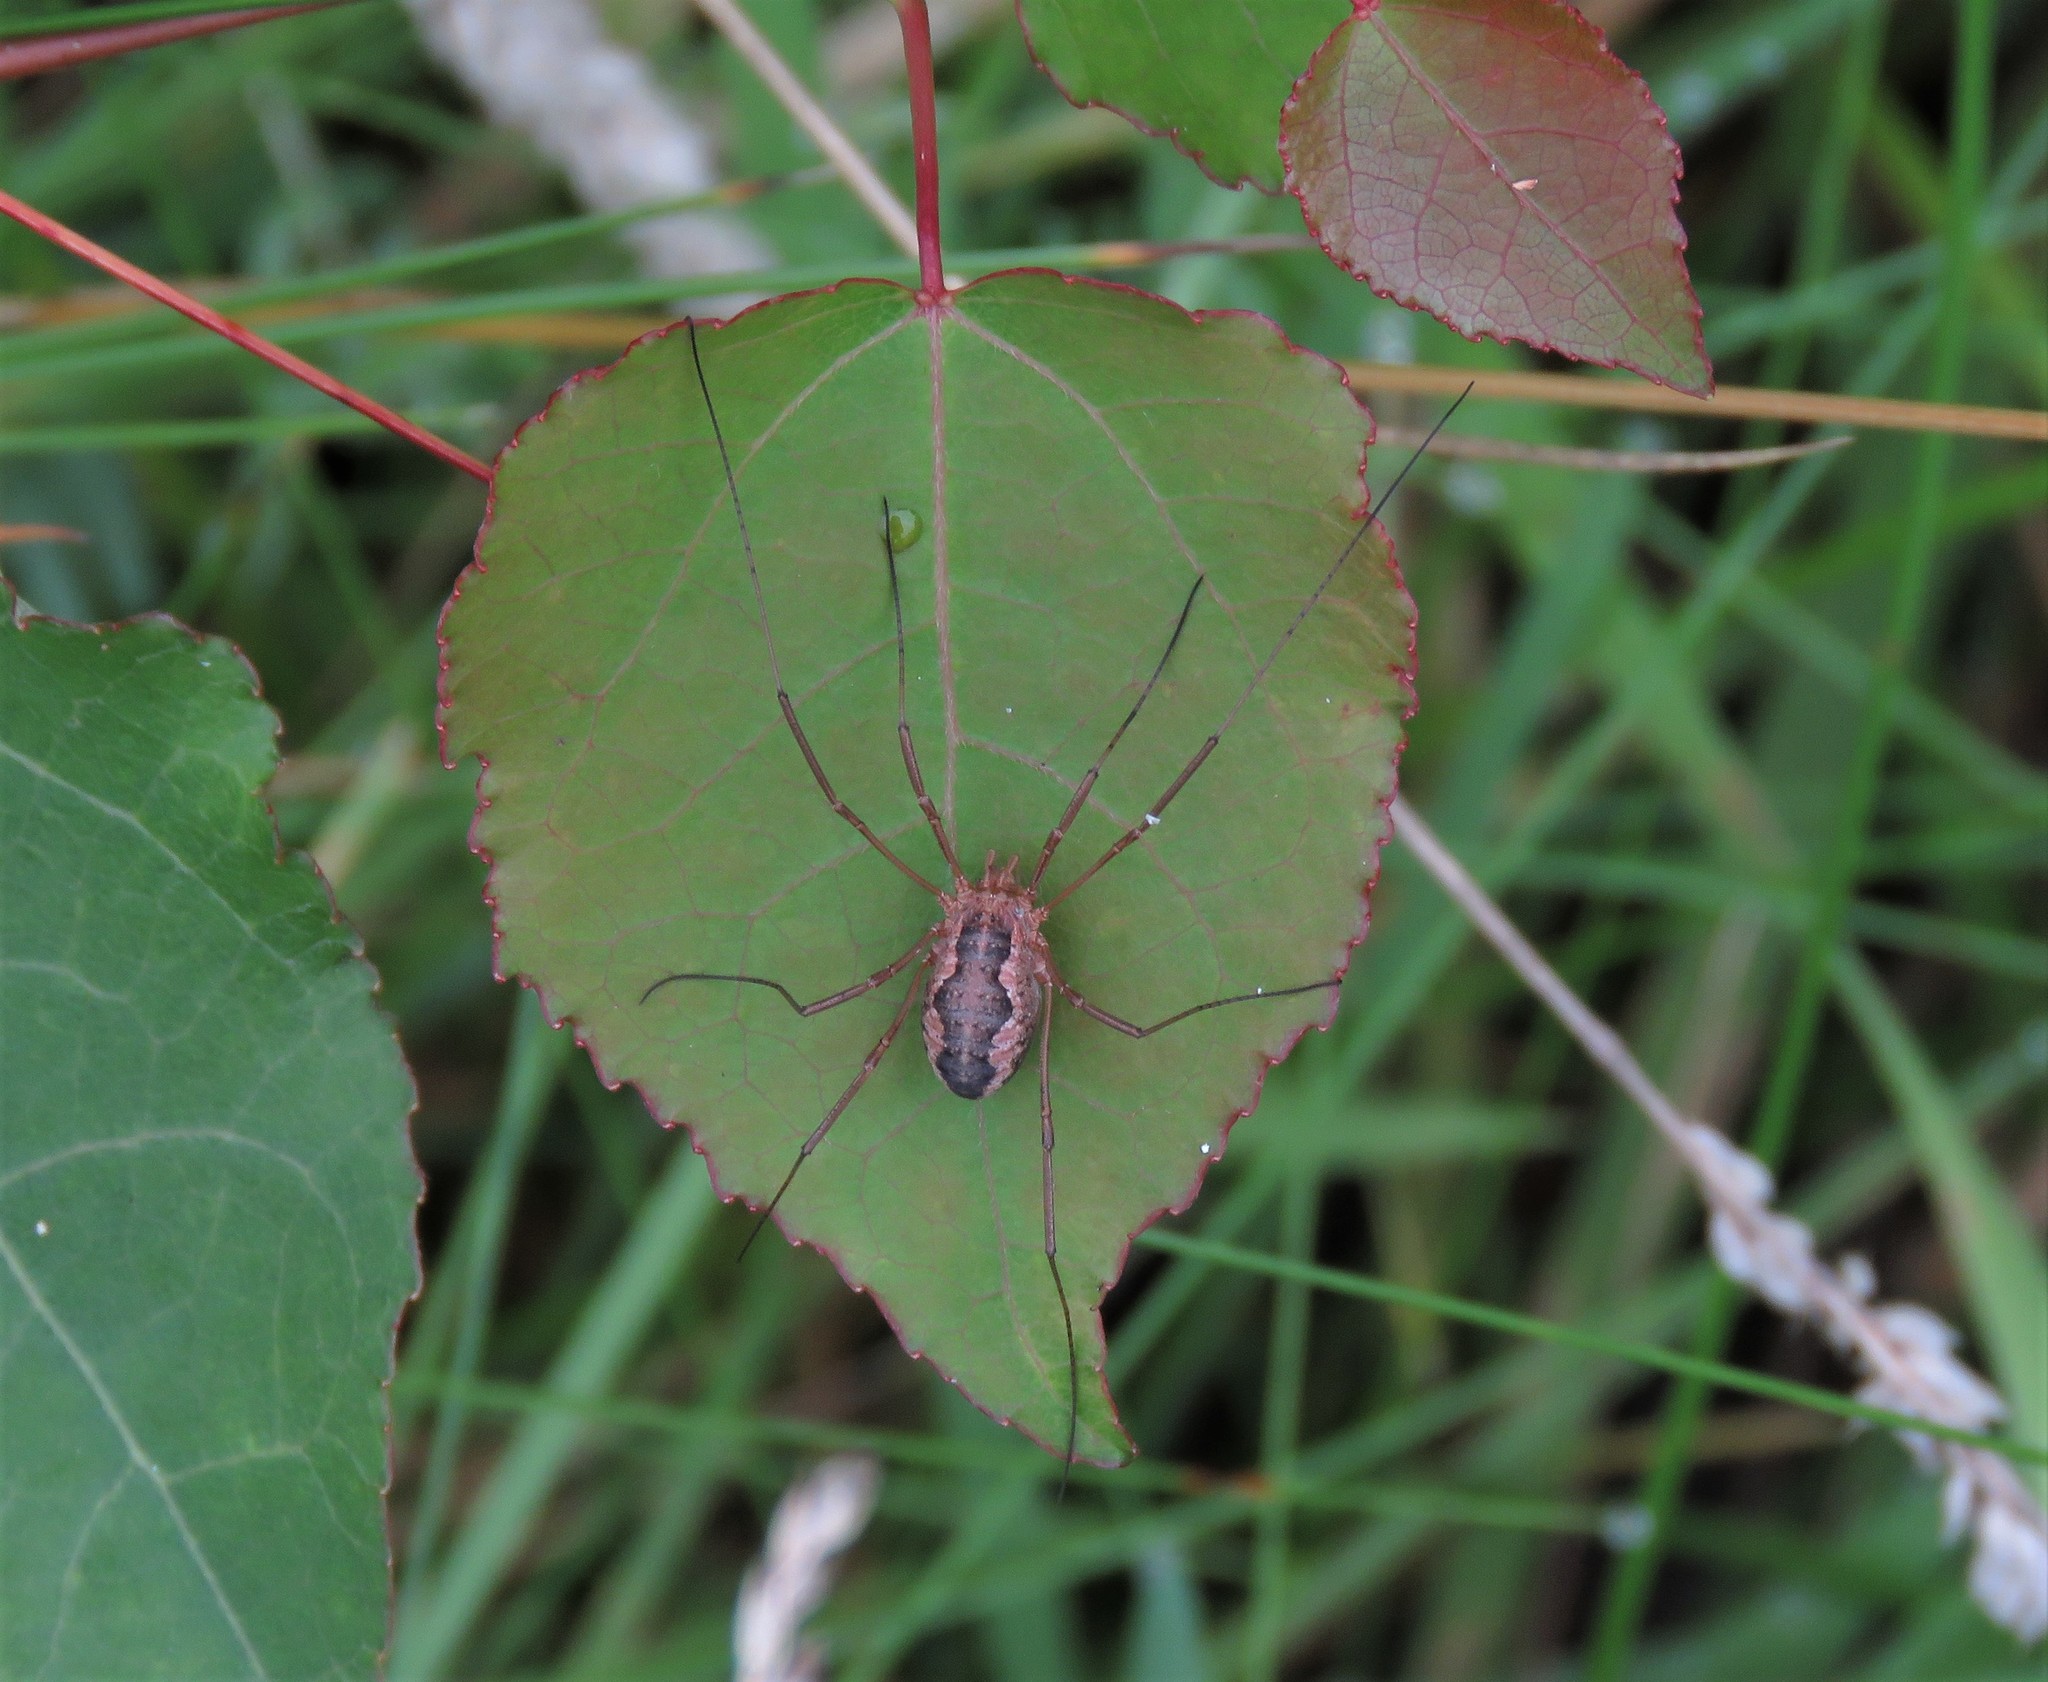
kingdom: Animalia
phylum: Arthropoda
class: Arachnida
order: Opiliones
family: Phalangiidae
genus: Phalangium
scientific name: Phalangium opilio
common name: Daddy longleg
